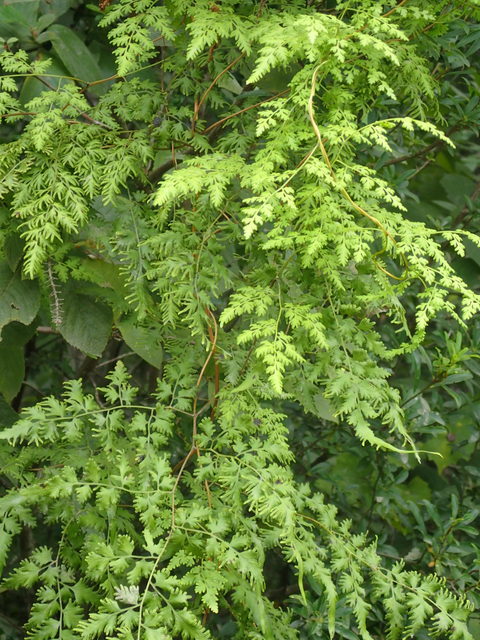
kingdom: Plantae
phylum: Tracheophyta
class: Polypodiopsida
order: Schizaeales
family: Lygodiaceae
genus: Lygodium
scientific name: Lygodium japonicum
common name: Japanese climbing fern
